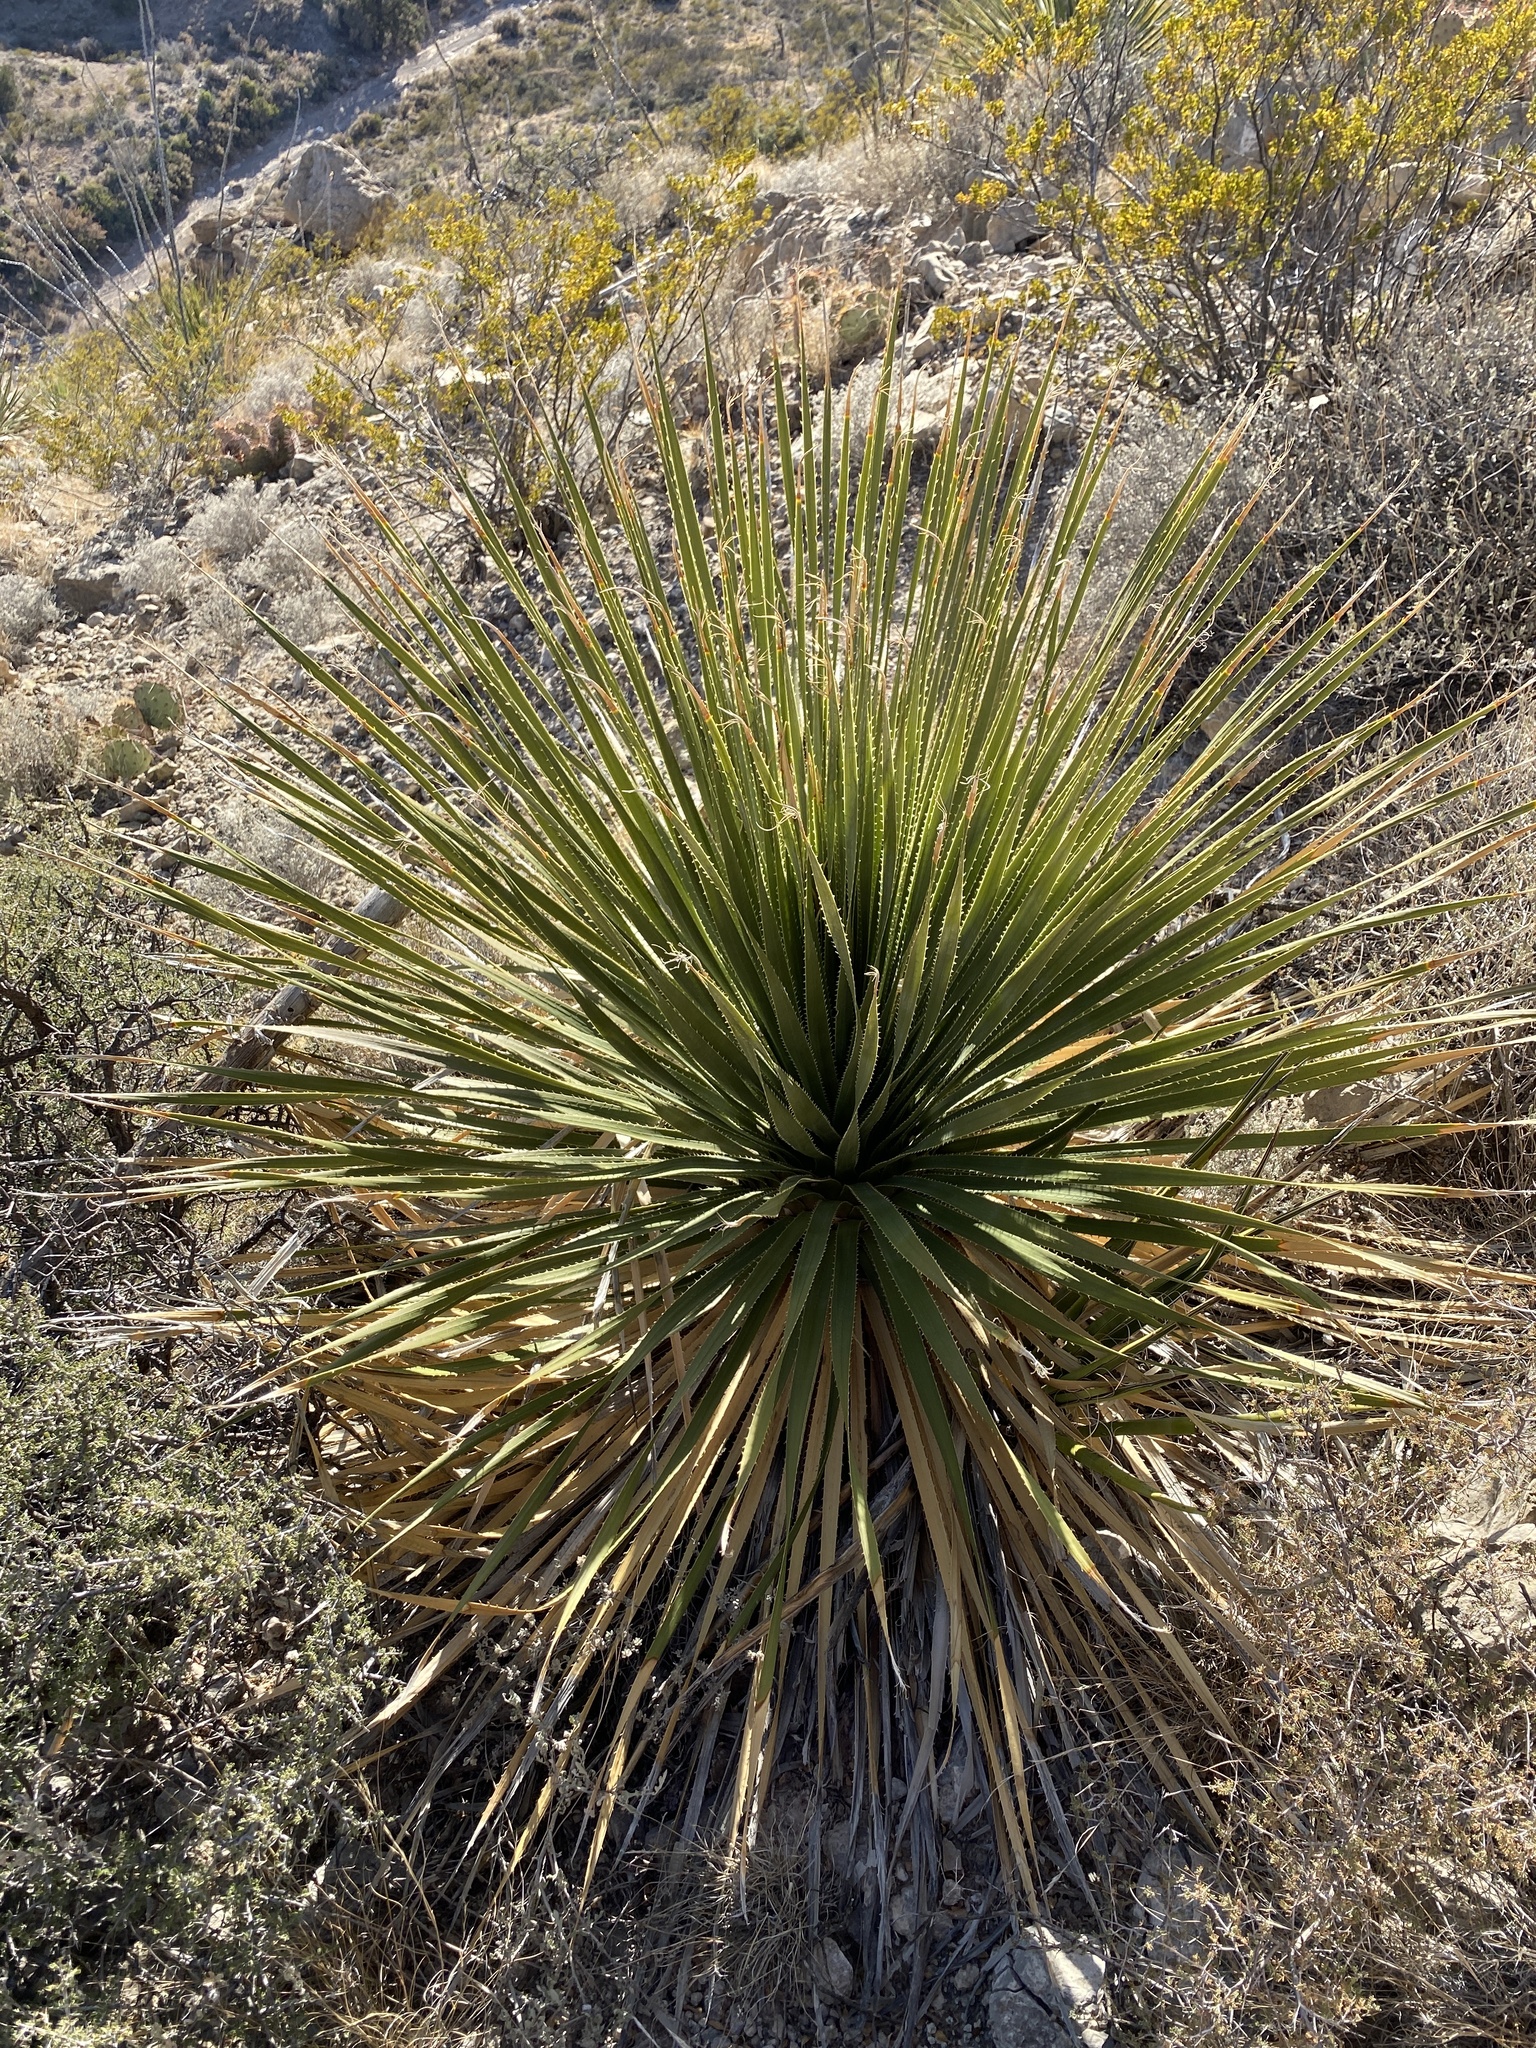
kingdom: Plantae
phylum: Tracheophyta
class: Liliopsida
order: Asparagales
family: Asparagaceae
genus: Dasylirion
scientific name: Dasylirion wheeleri
